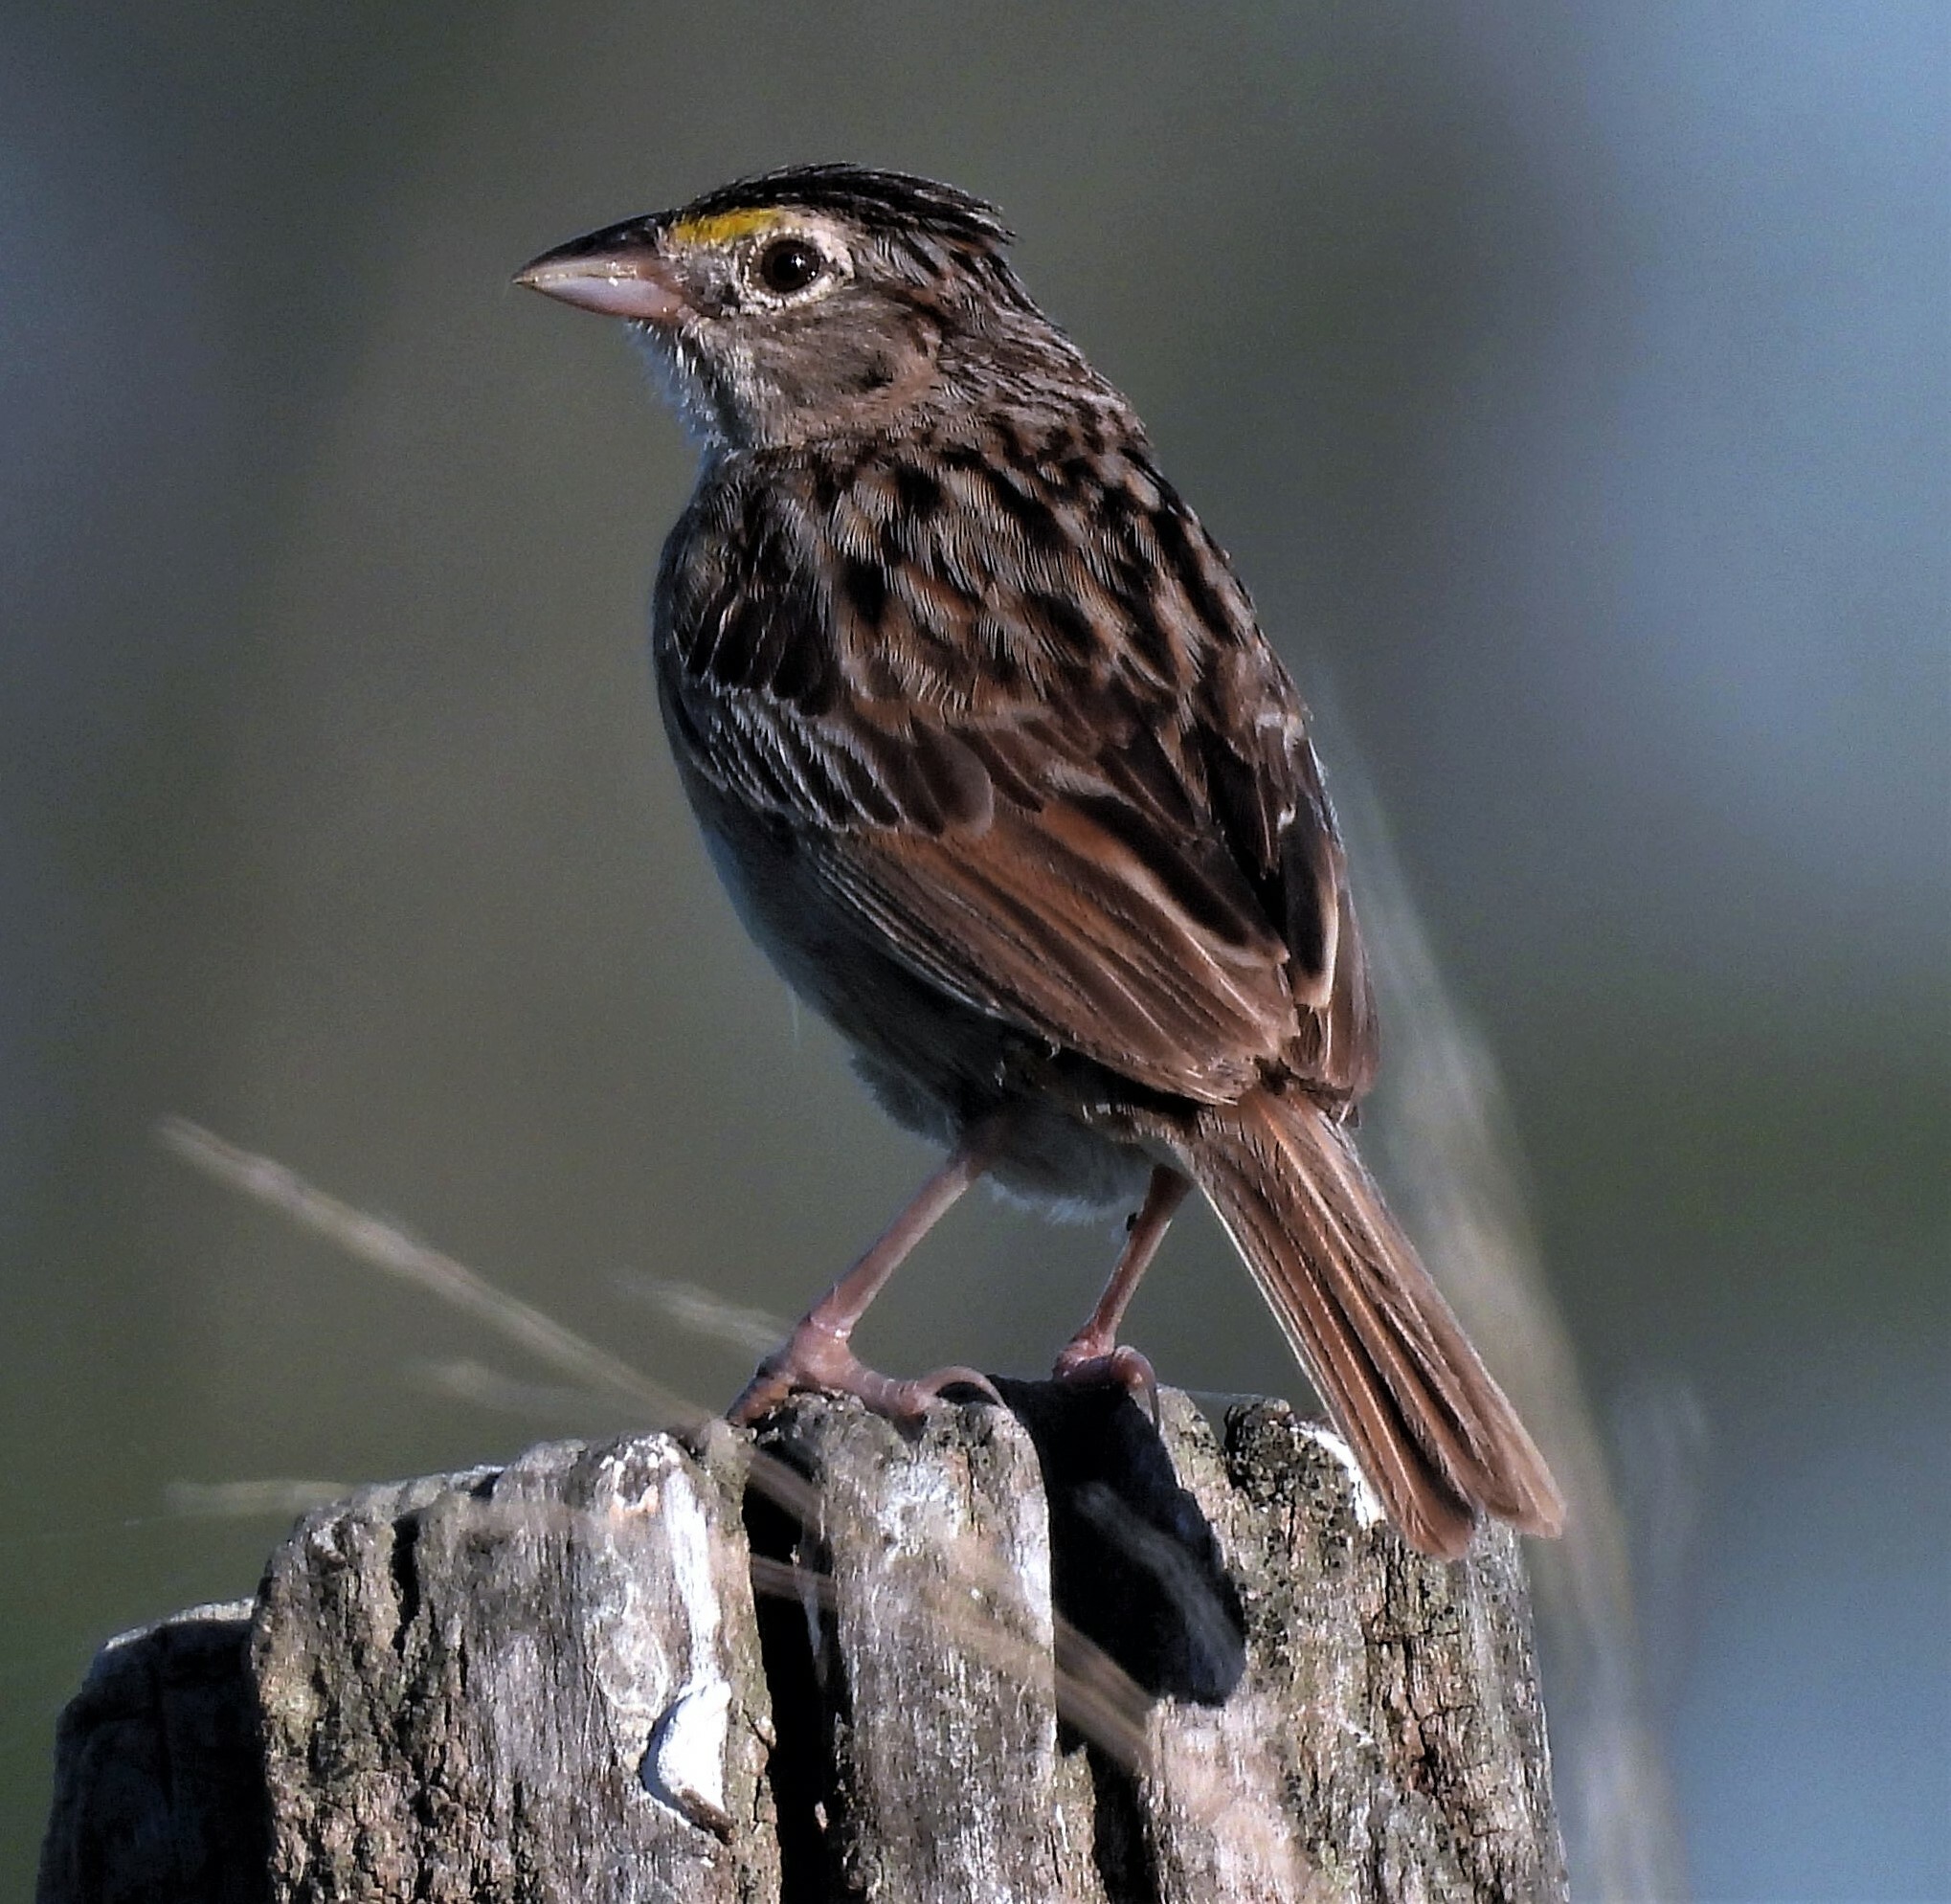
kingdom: Animalia
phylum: Chordata
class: Aves
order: Passeriformes
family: Passerellidae
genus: Ammodramus
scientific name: Ammodramus humeralis
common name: Grassland sparrow
